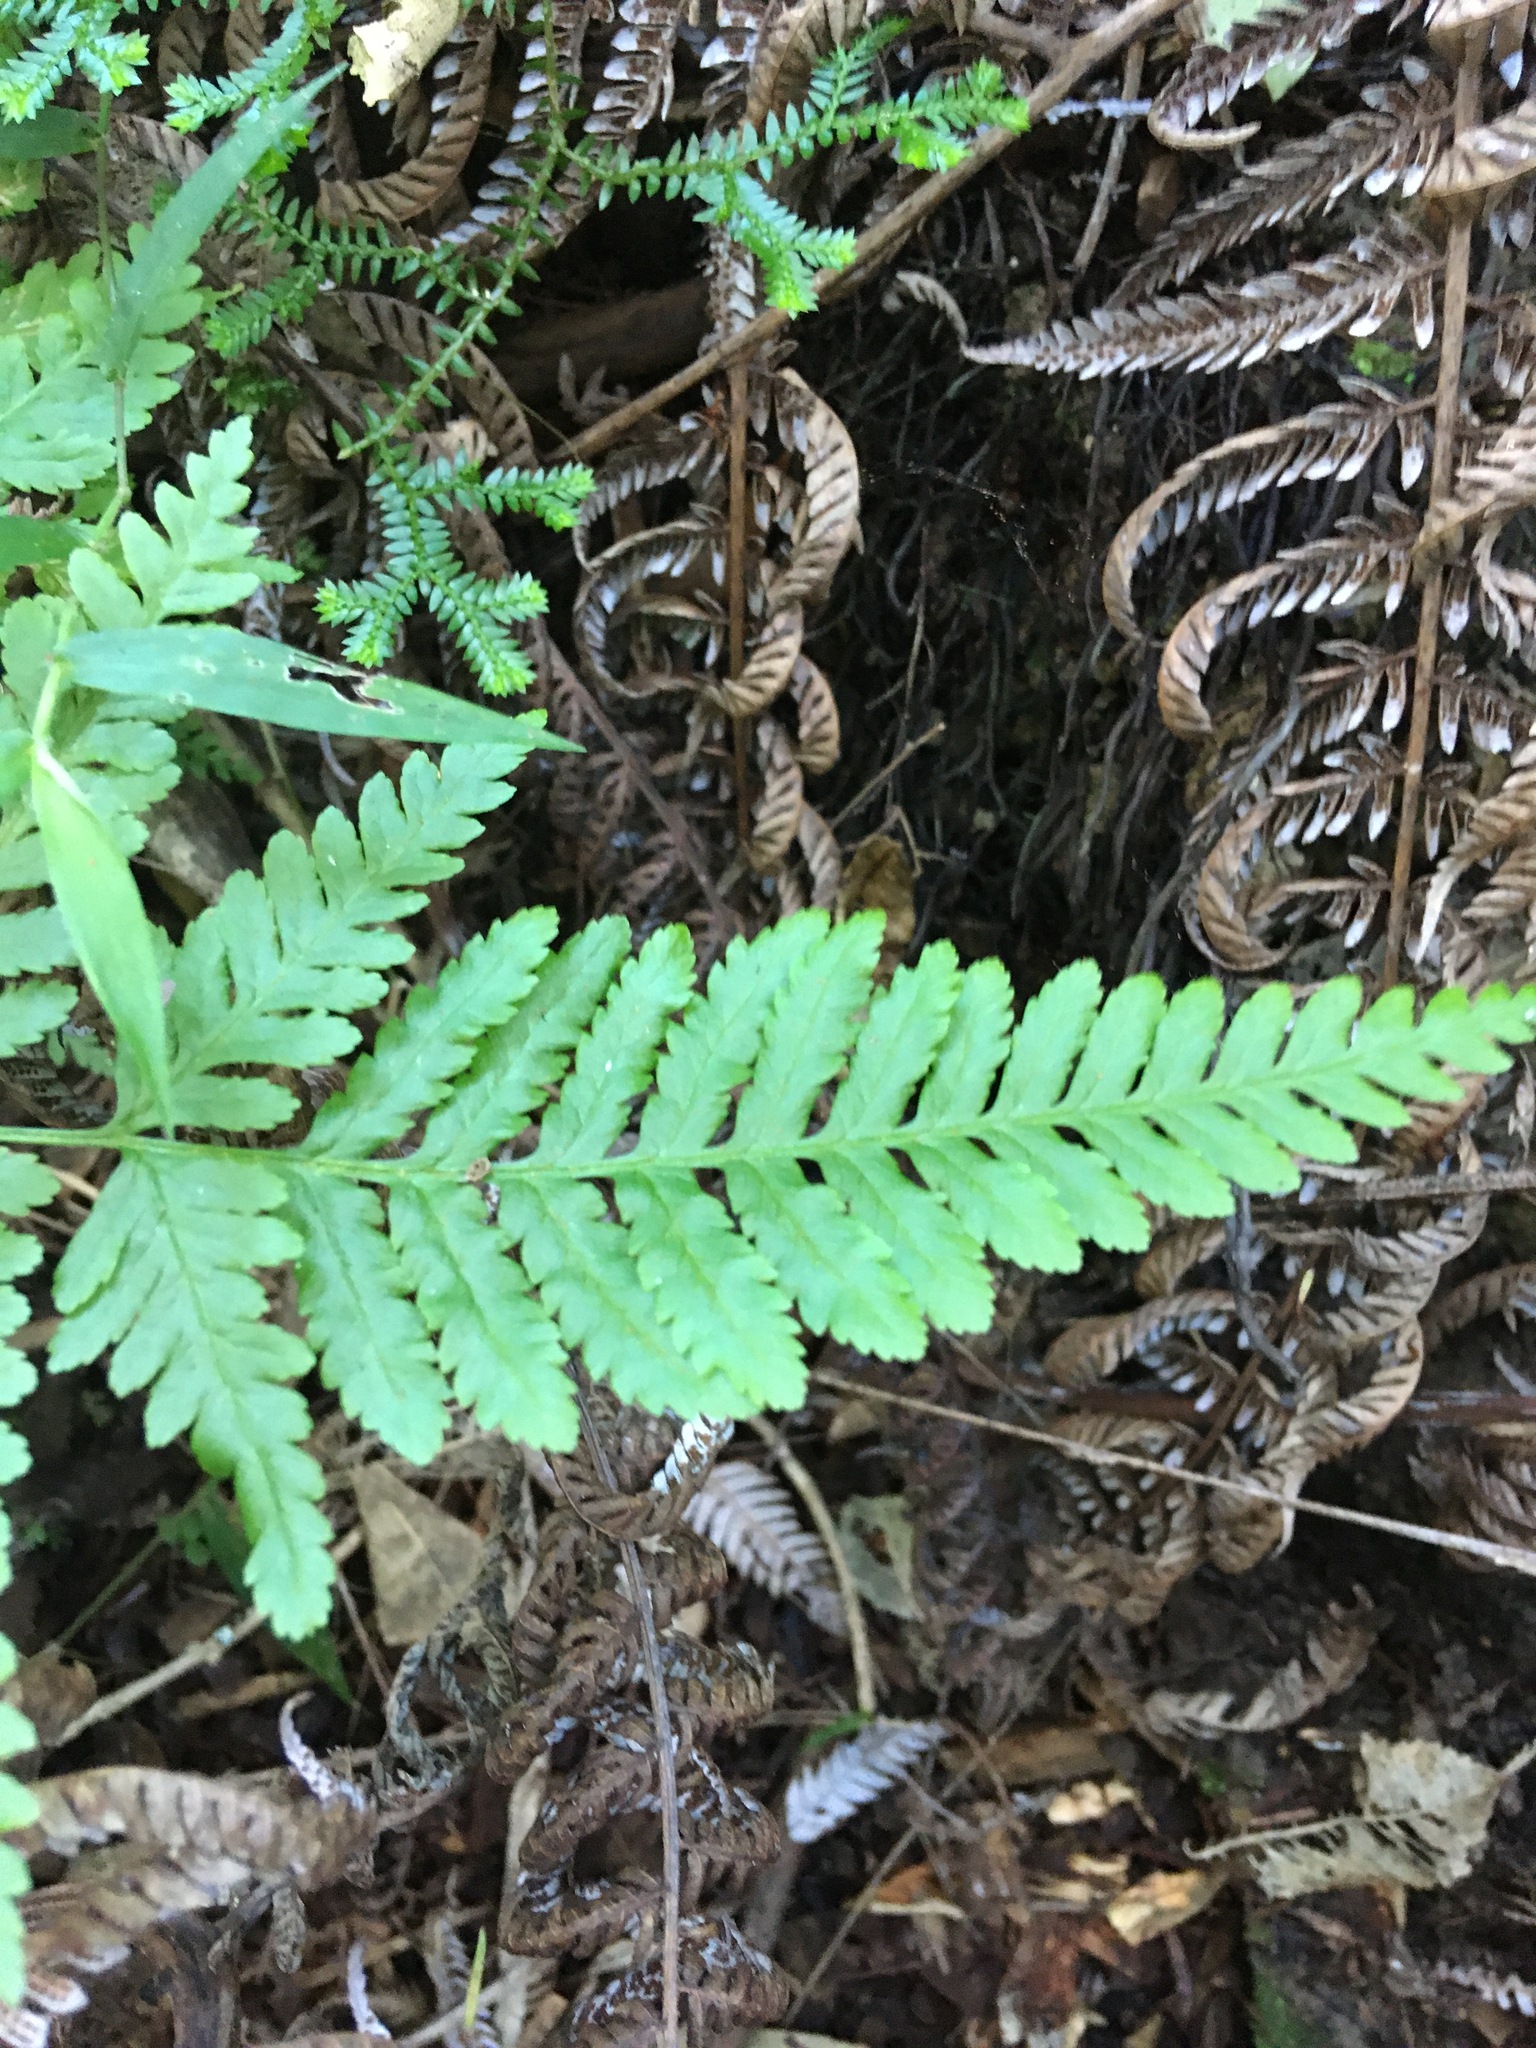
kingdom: Plantae
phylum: Tracheophyta
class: Polypodiopsida
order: Polypodiales
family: Pteridaceae
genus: Pteris
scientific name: Pteris tremula
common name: Australian brake
